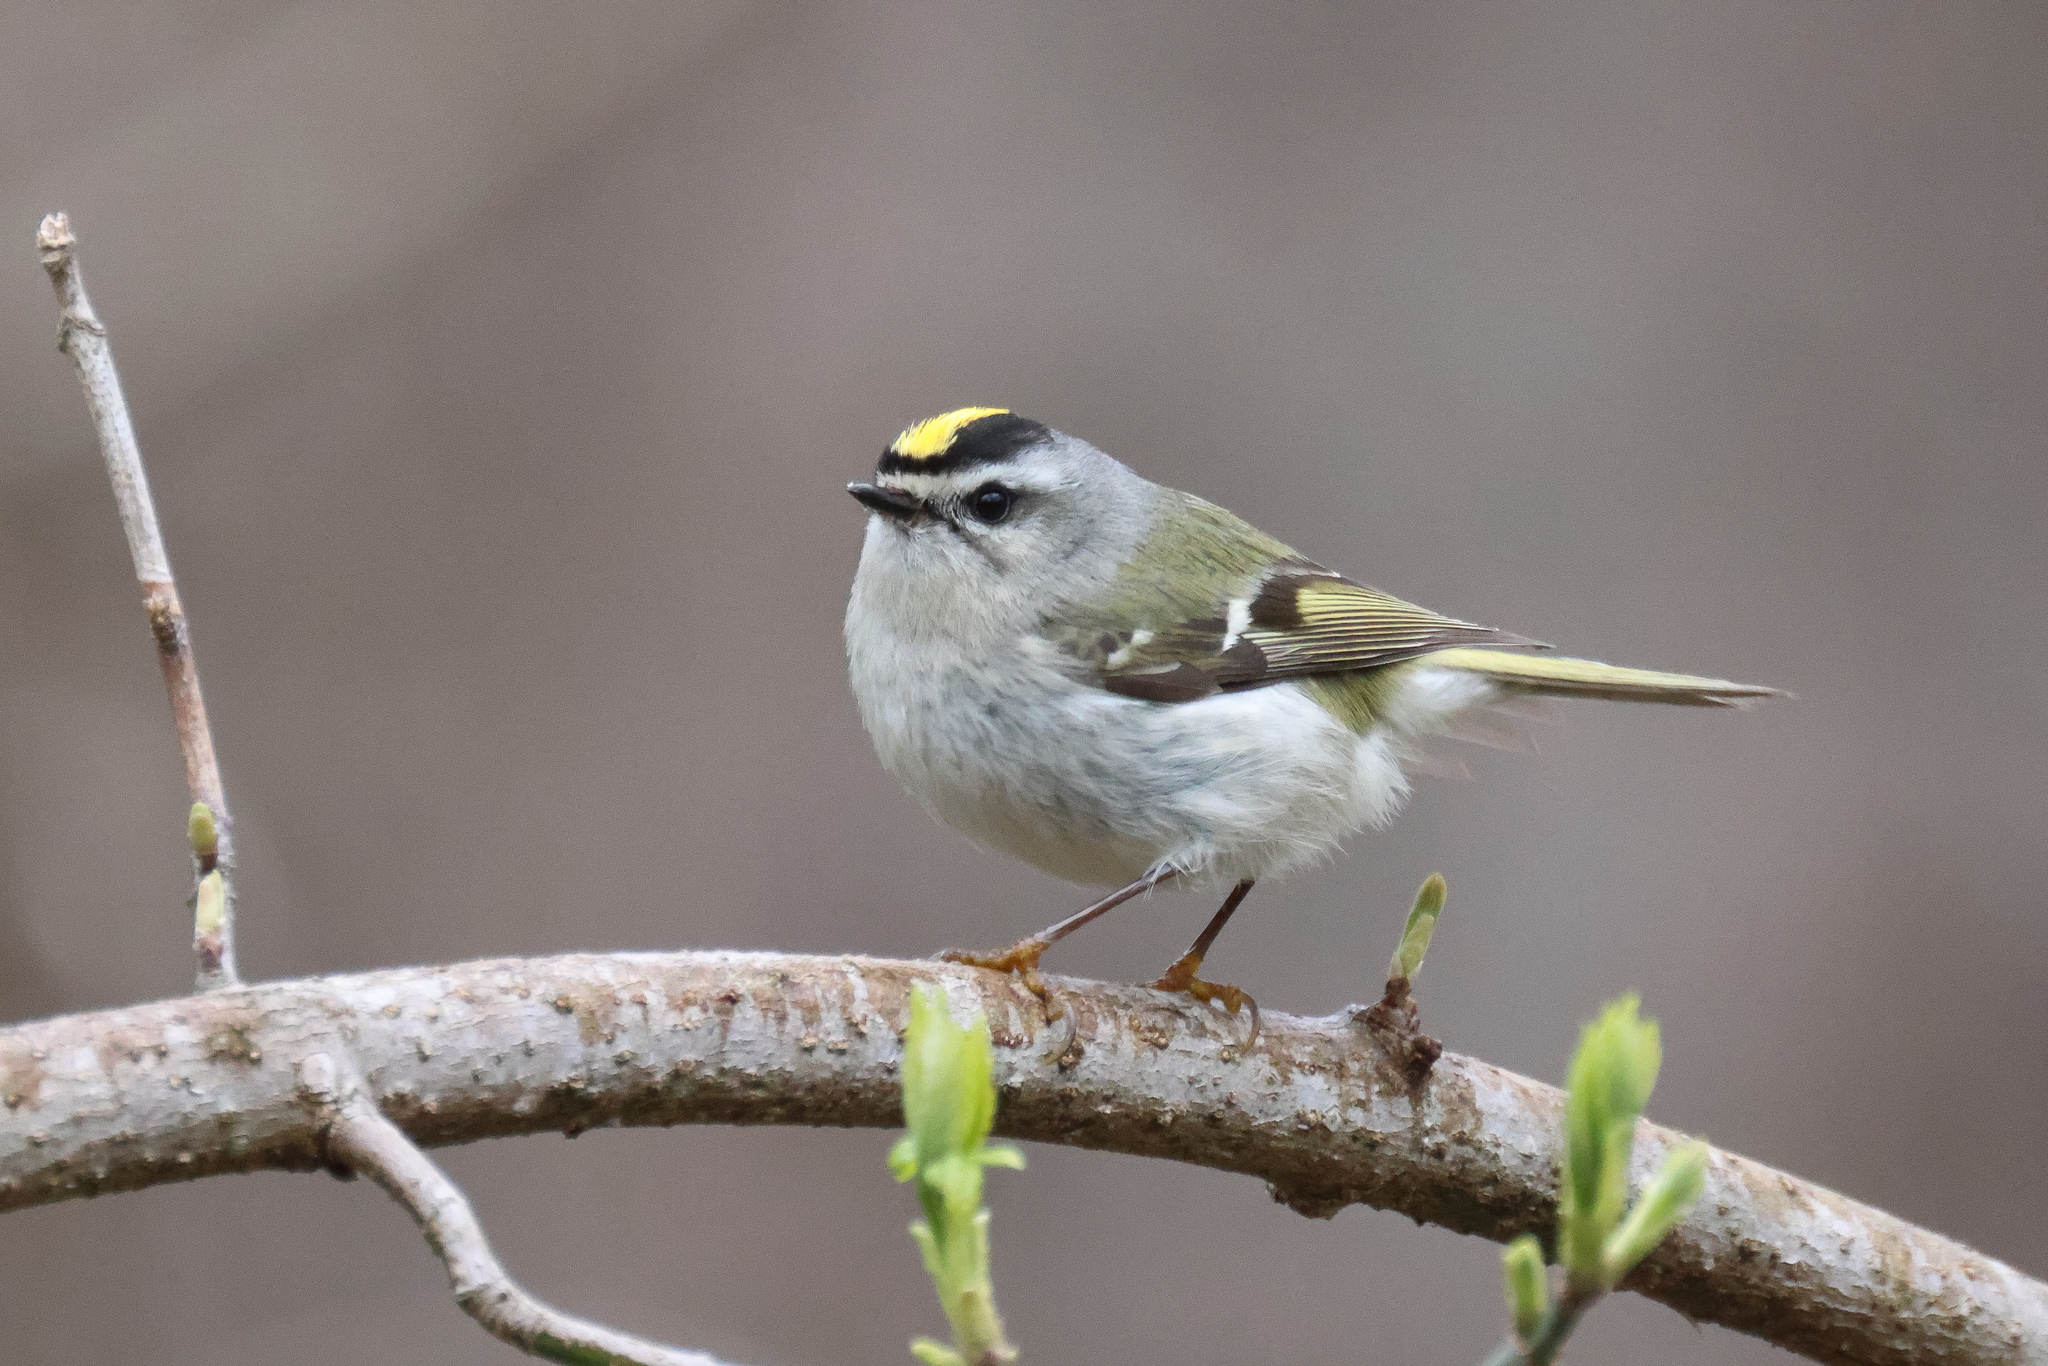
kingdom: Animalia
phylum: Chordata
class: Aves
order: Passeriformes
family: Regulidae
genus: Regulus
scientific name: Regulus satrapa
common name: Golden-crowned kinglet
